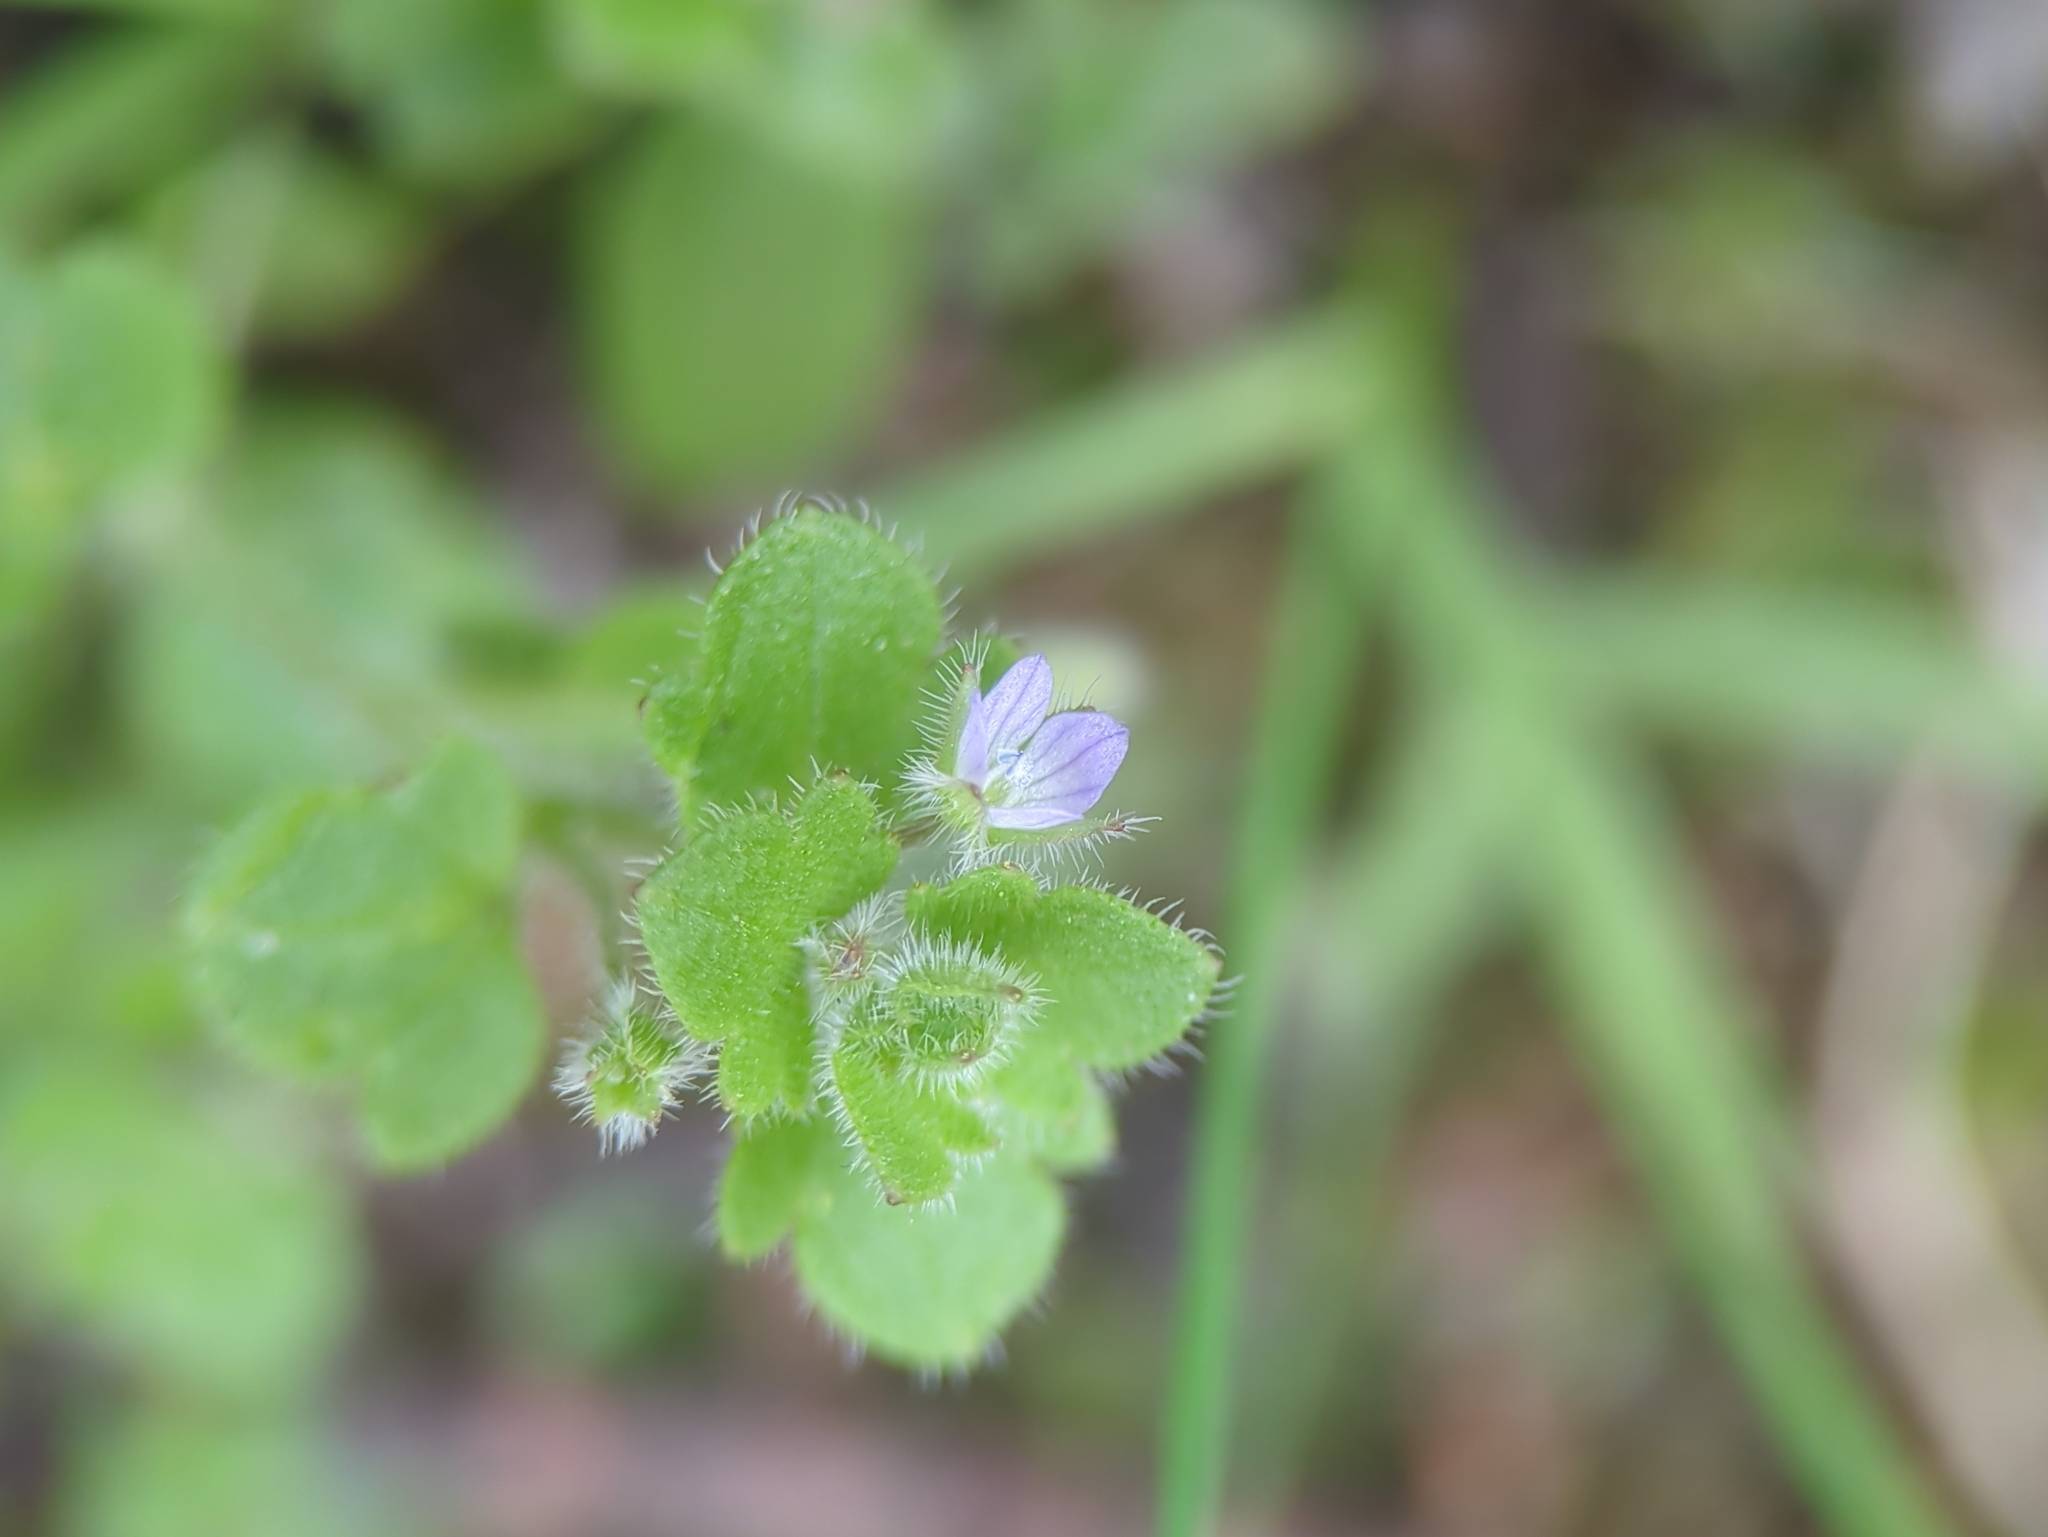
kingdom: Plantae
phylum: Tracheophyta
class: Magnoliopsida
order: Lamiales
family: Plantaginaceae
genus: Veronica
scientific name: Veronica sublobata
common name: False ivy-leaved speedwell
